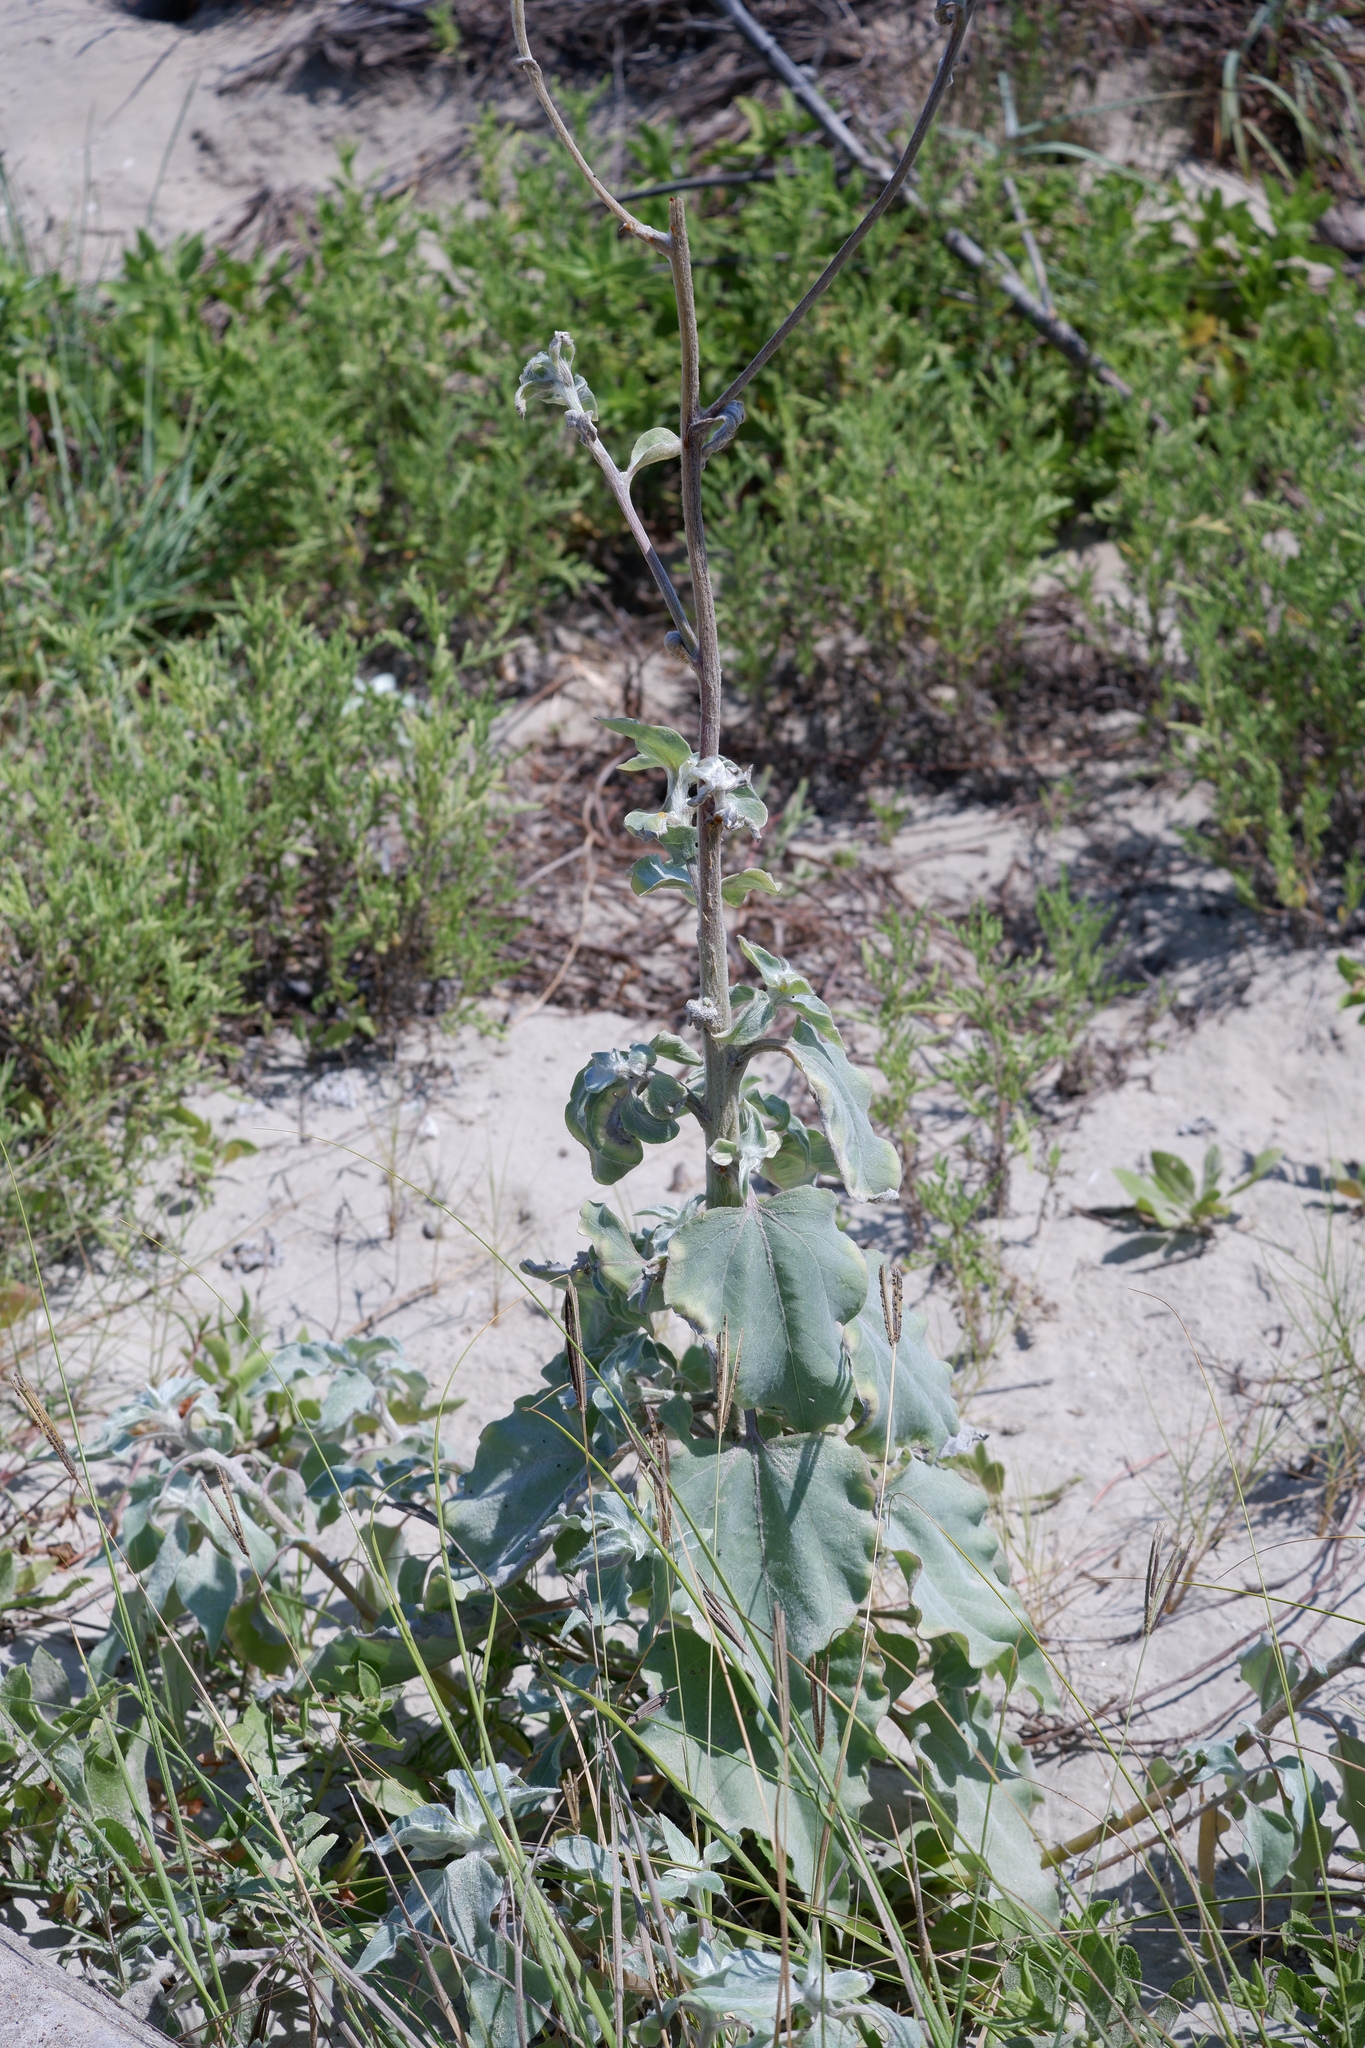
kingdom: Plantae
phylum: Tracheophyta
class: Magnoliopsida
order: Asterales
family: Asteraceae
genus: Helianthus
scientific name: Helianthus argophyllus
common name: Silverleaf sunflower
